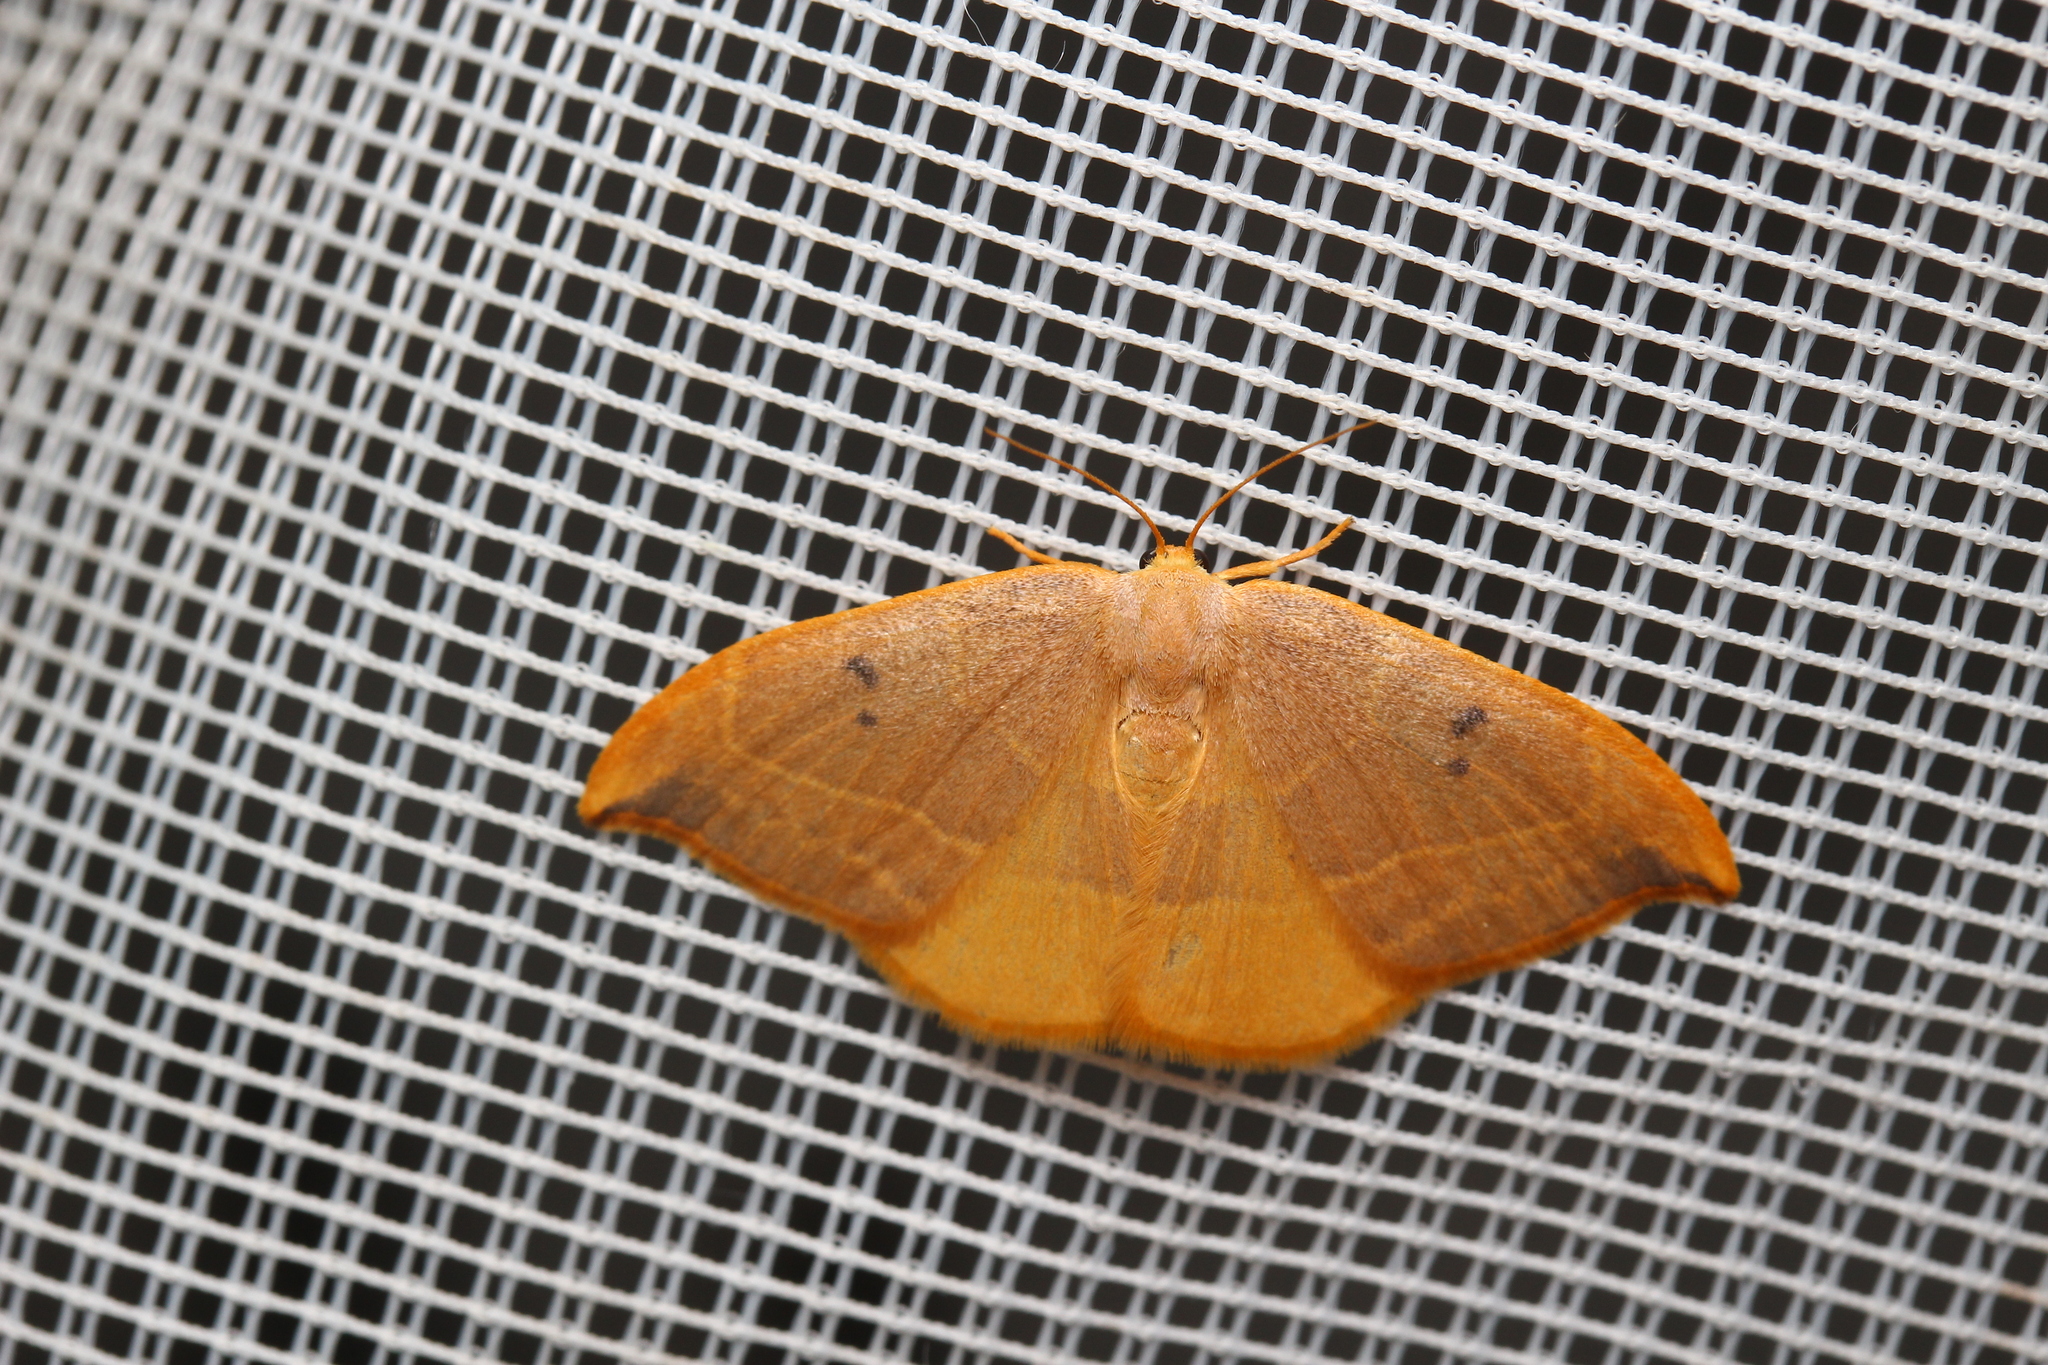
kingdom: Animalia
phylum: Arthropoda
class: Insecta
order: Lepidoptera
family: Drepanidae
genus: Watsonalla
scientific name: Watsonalla binaria
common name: Oak hook-tip
